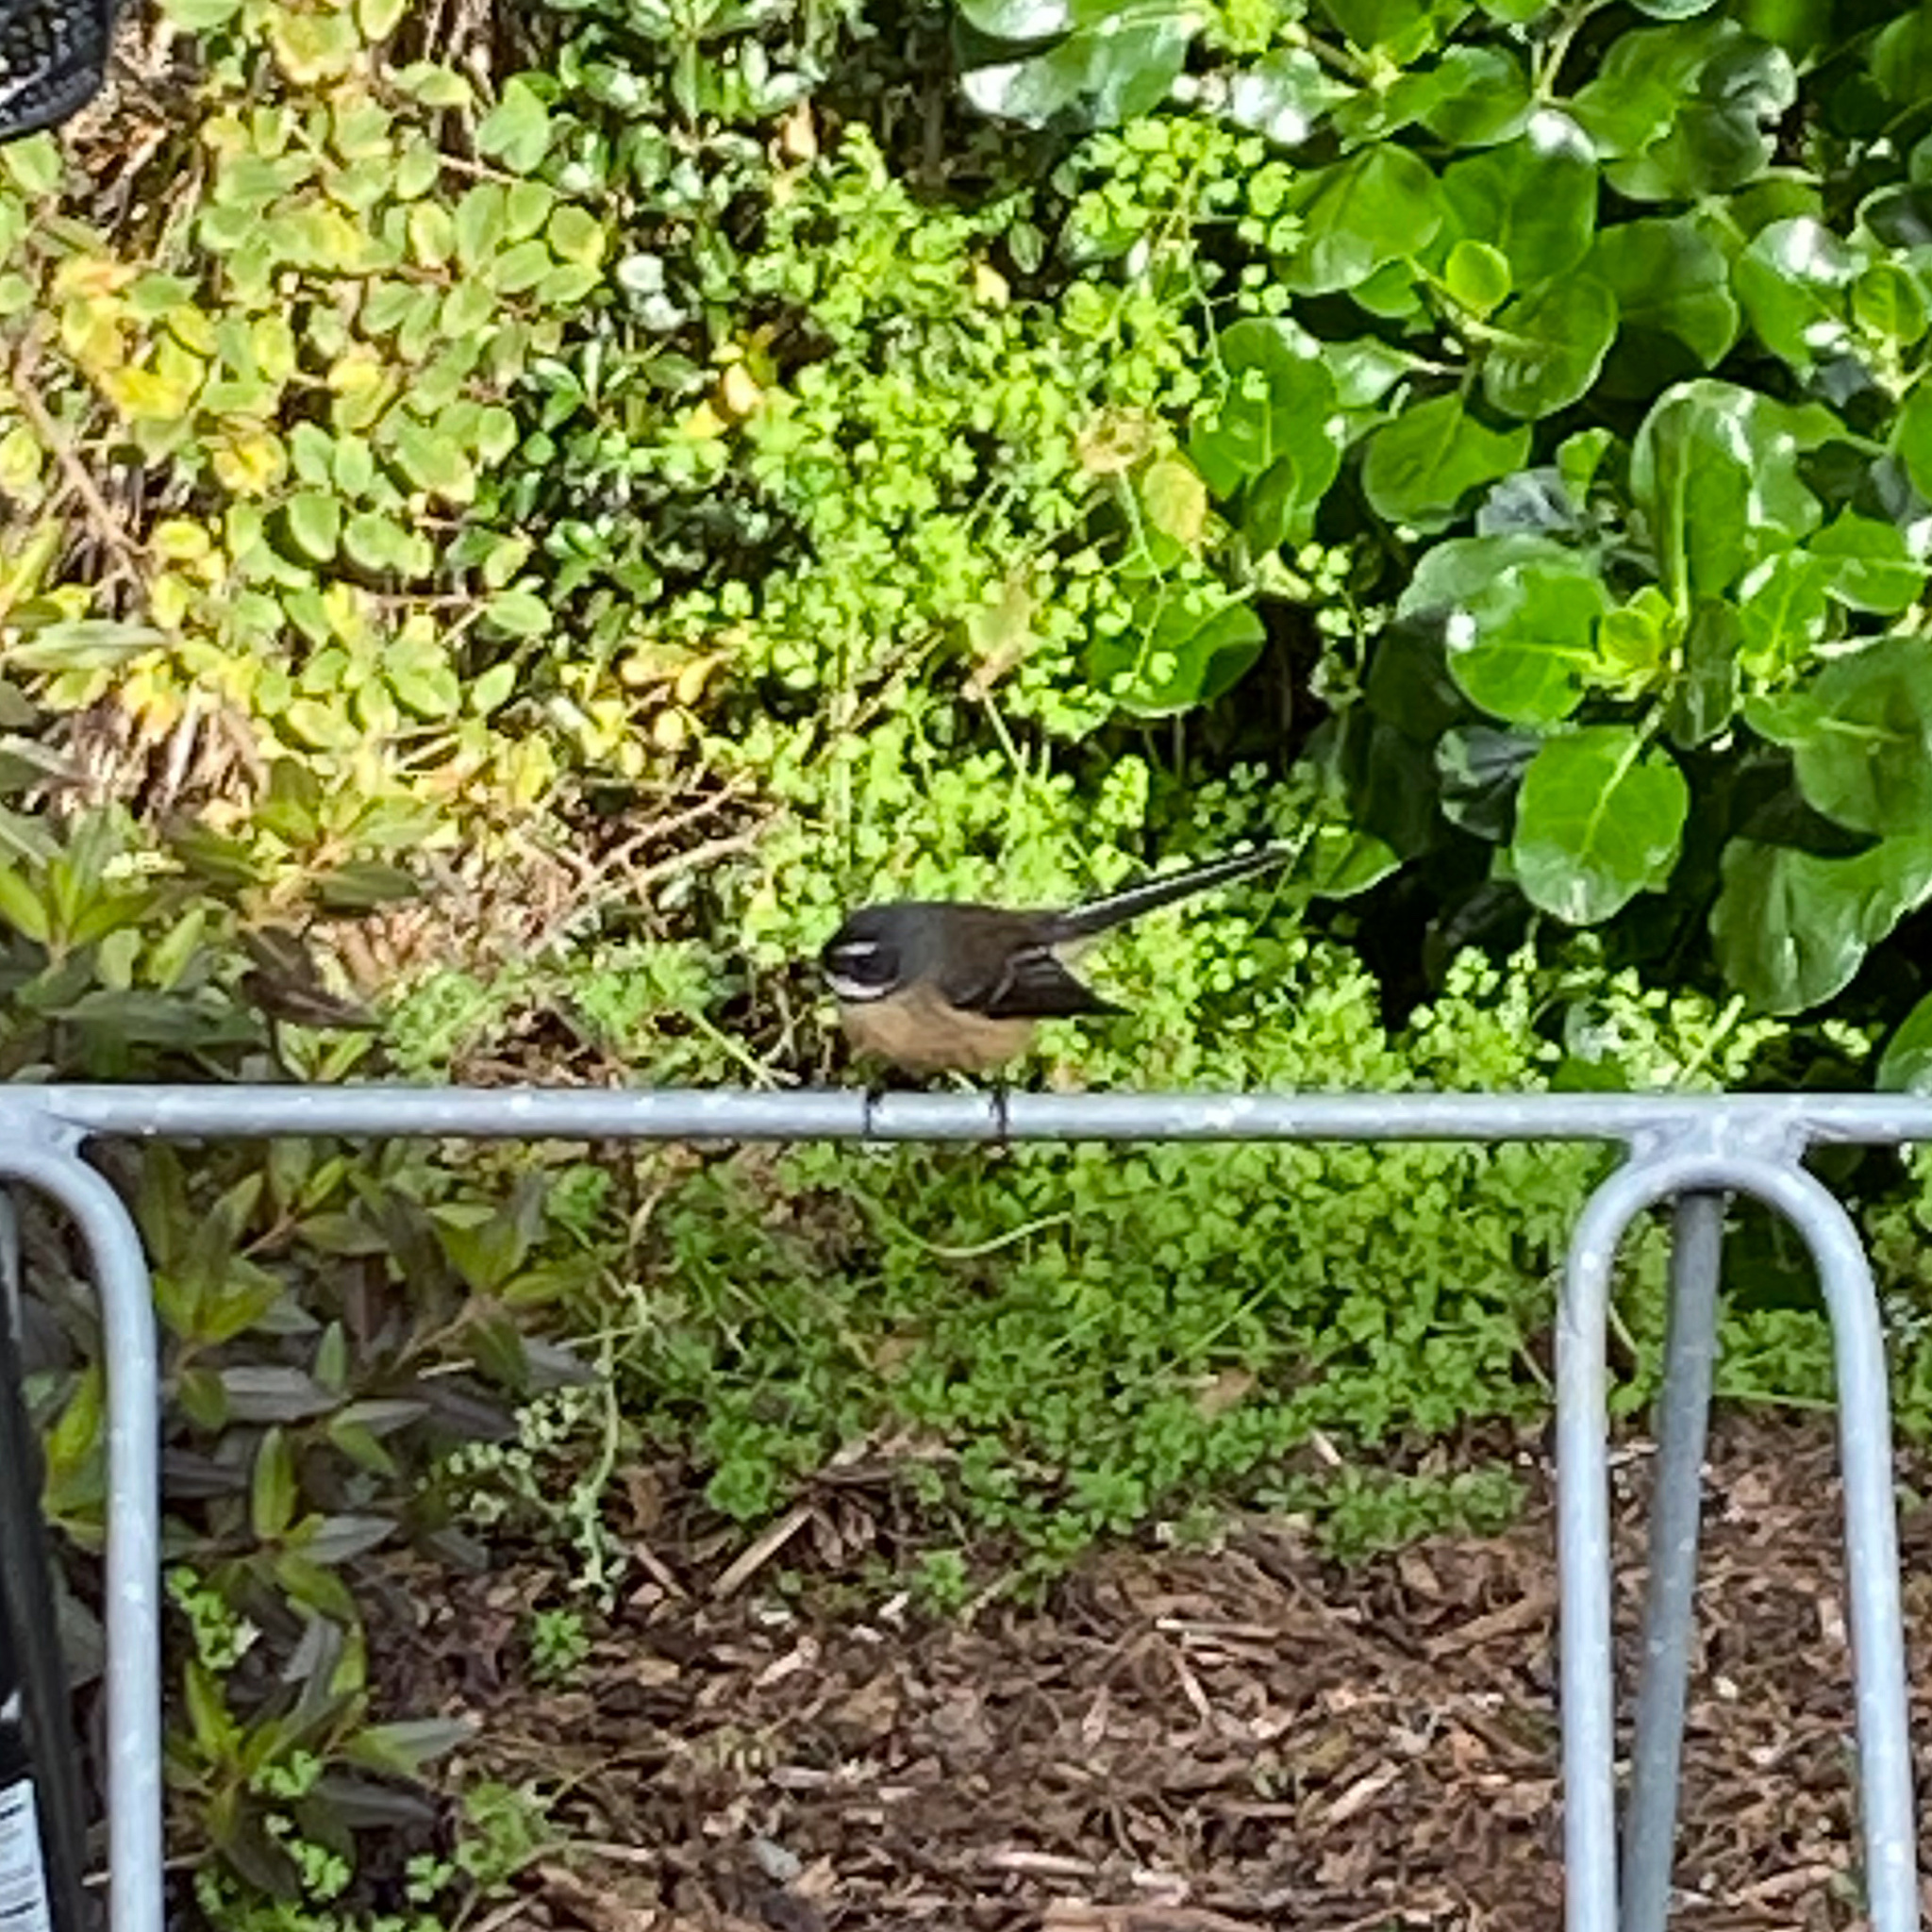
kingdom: Animalia
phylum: Chordata
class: Aves
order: Passeriformes
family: Rhipiduridae
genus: Rhipidura
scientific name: Rhipidura fuliginosa
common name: New zealand fantail
